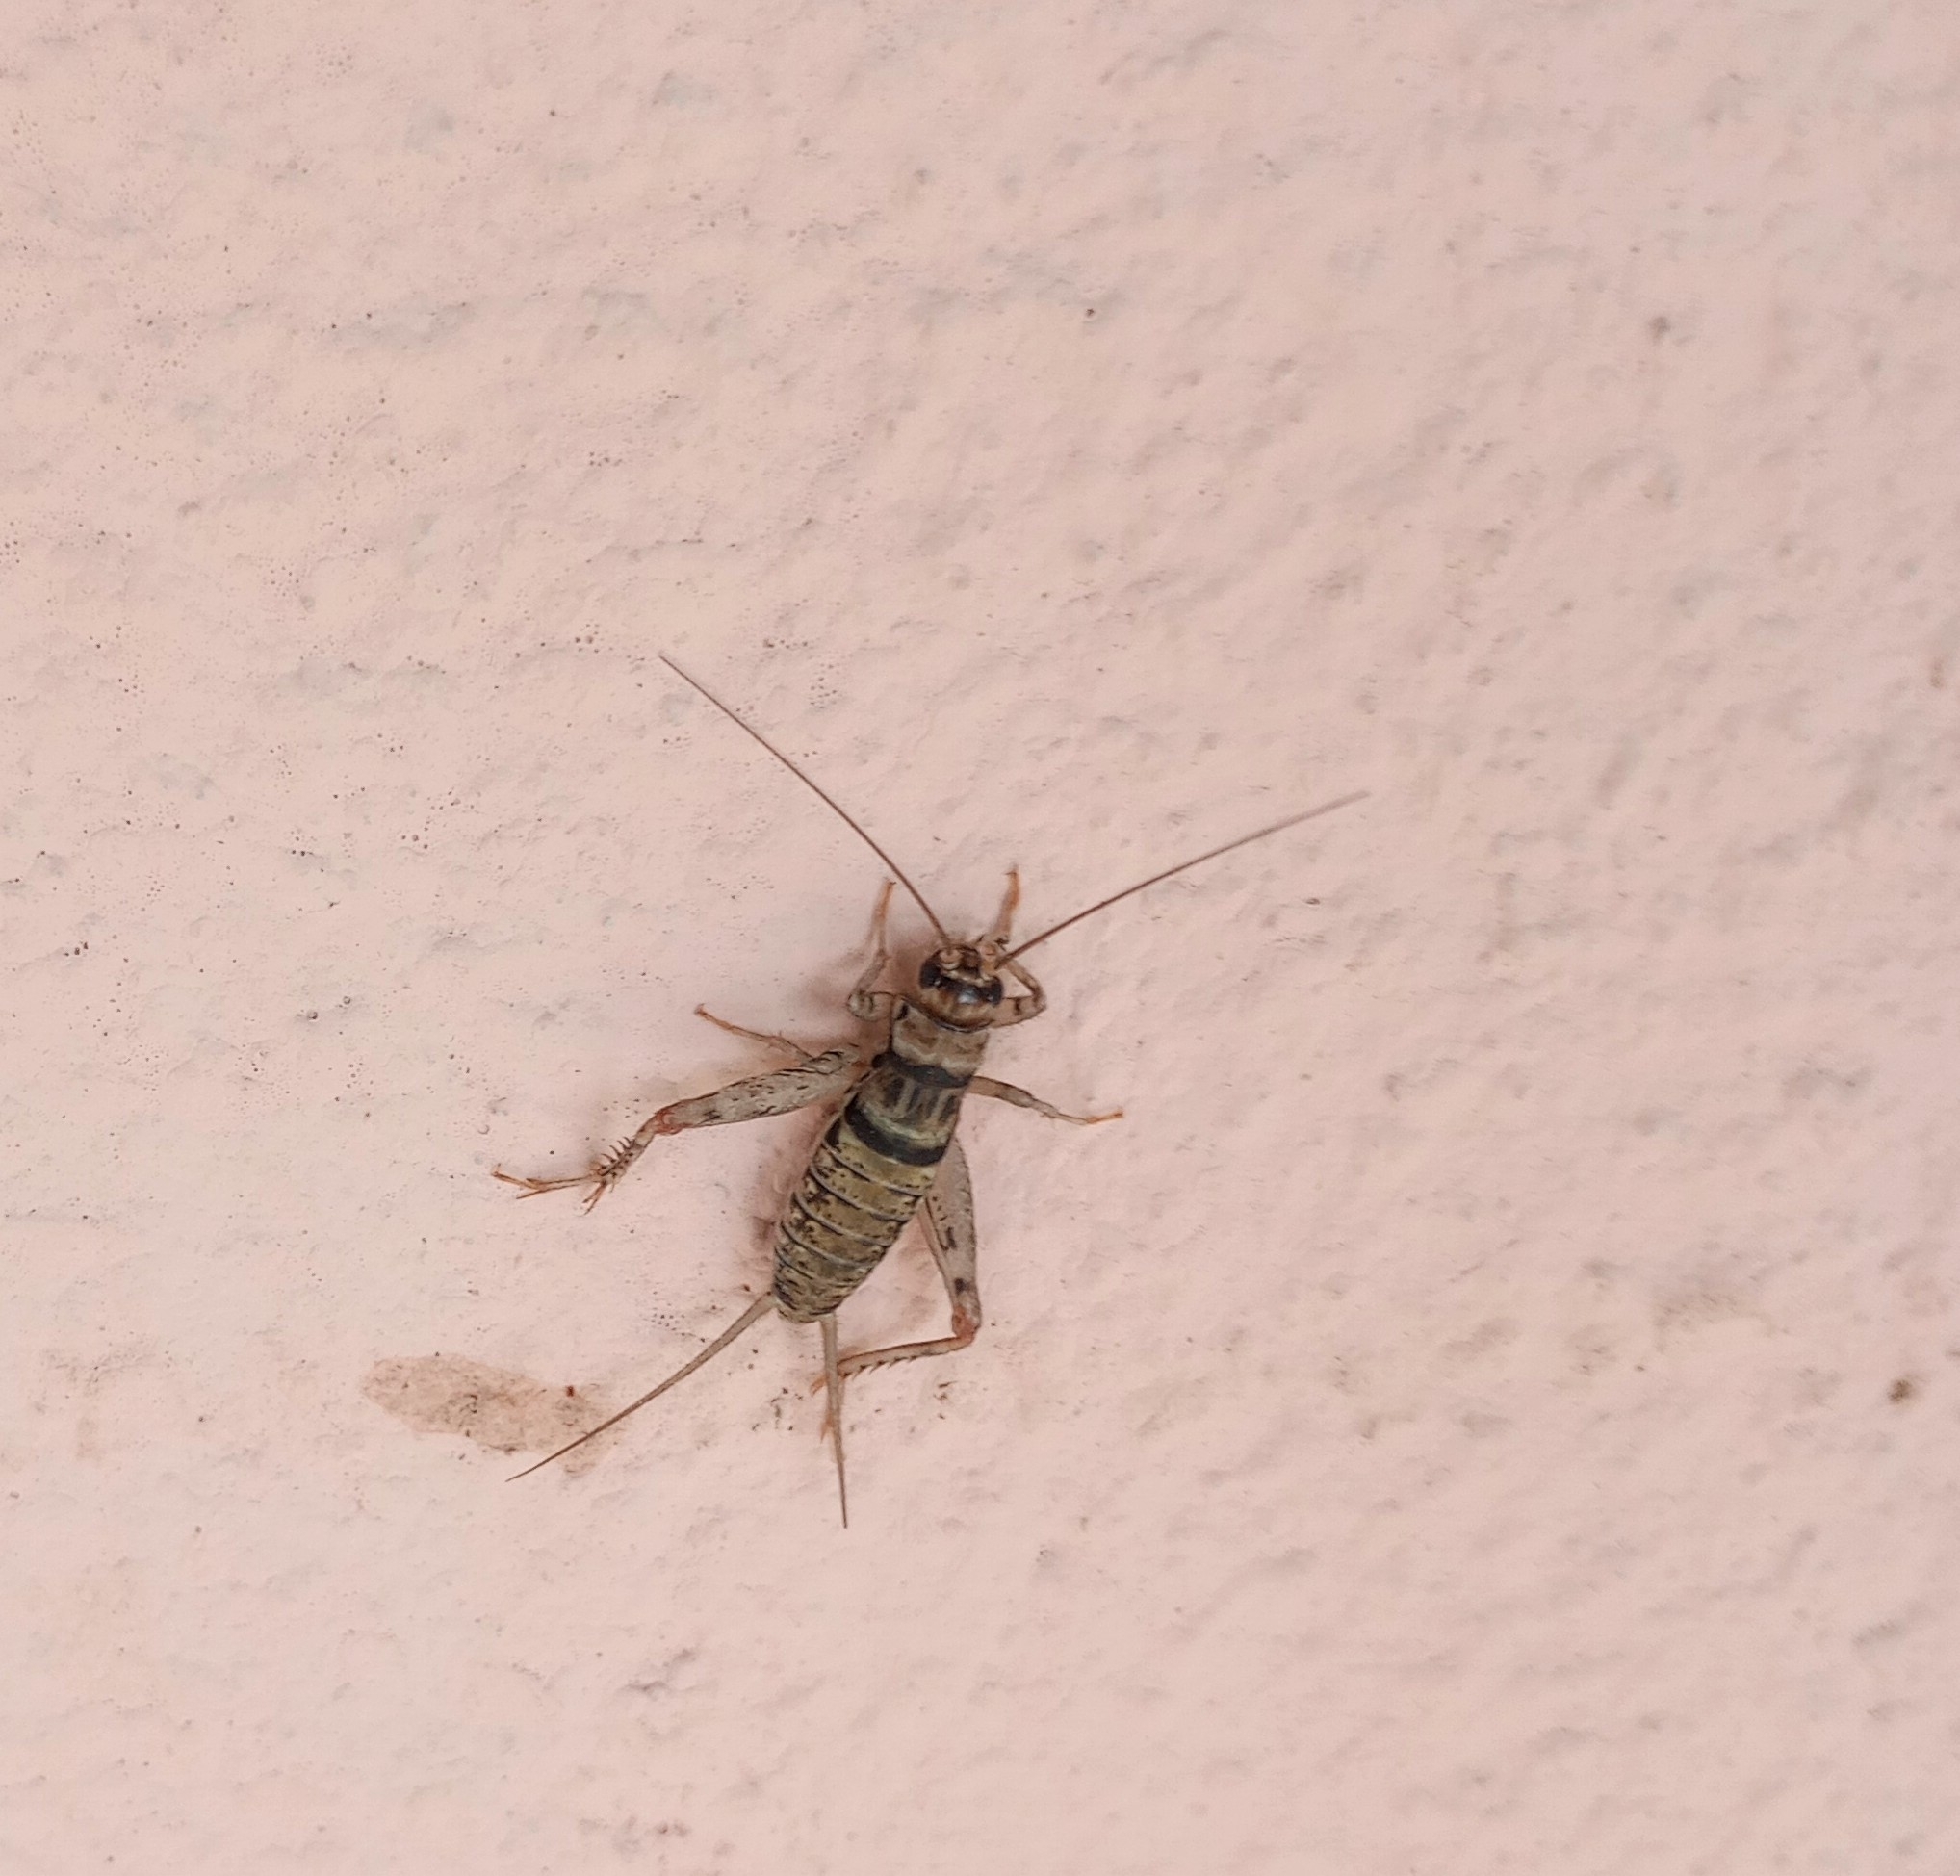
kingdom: Animalia
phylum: Arthropoda
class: Insecta
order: Orthoptera
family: Gryllidae
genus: Gryllodes
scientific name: Gryllodes sigillatus
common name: Tropical house cricket
